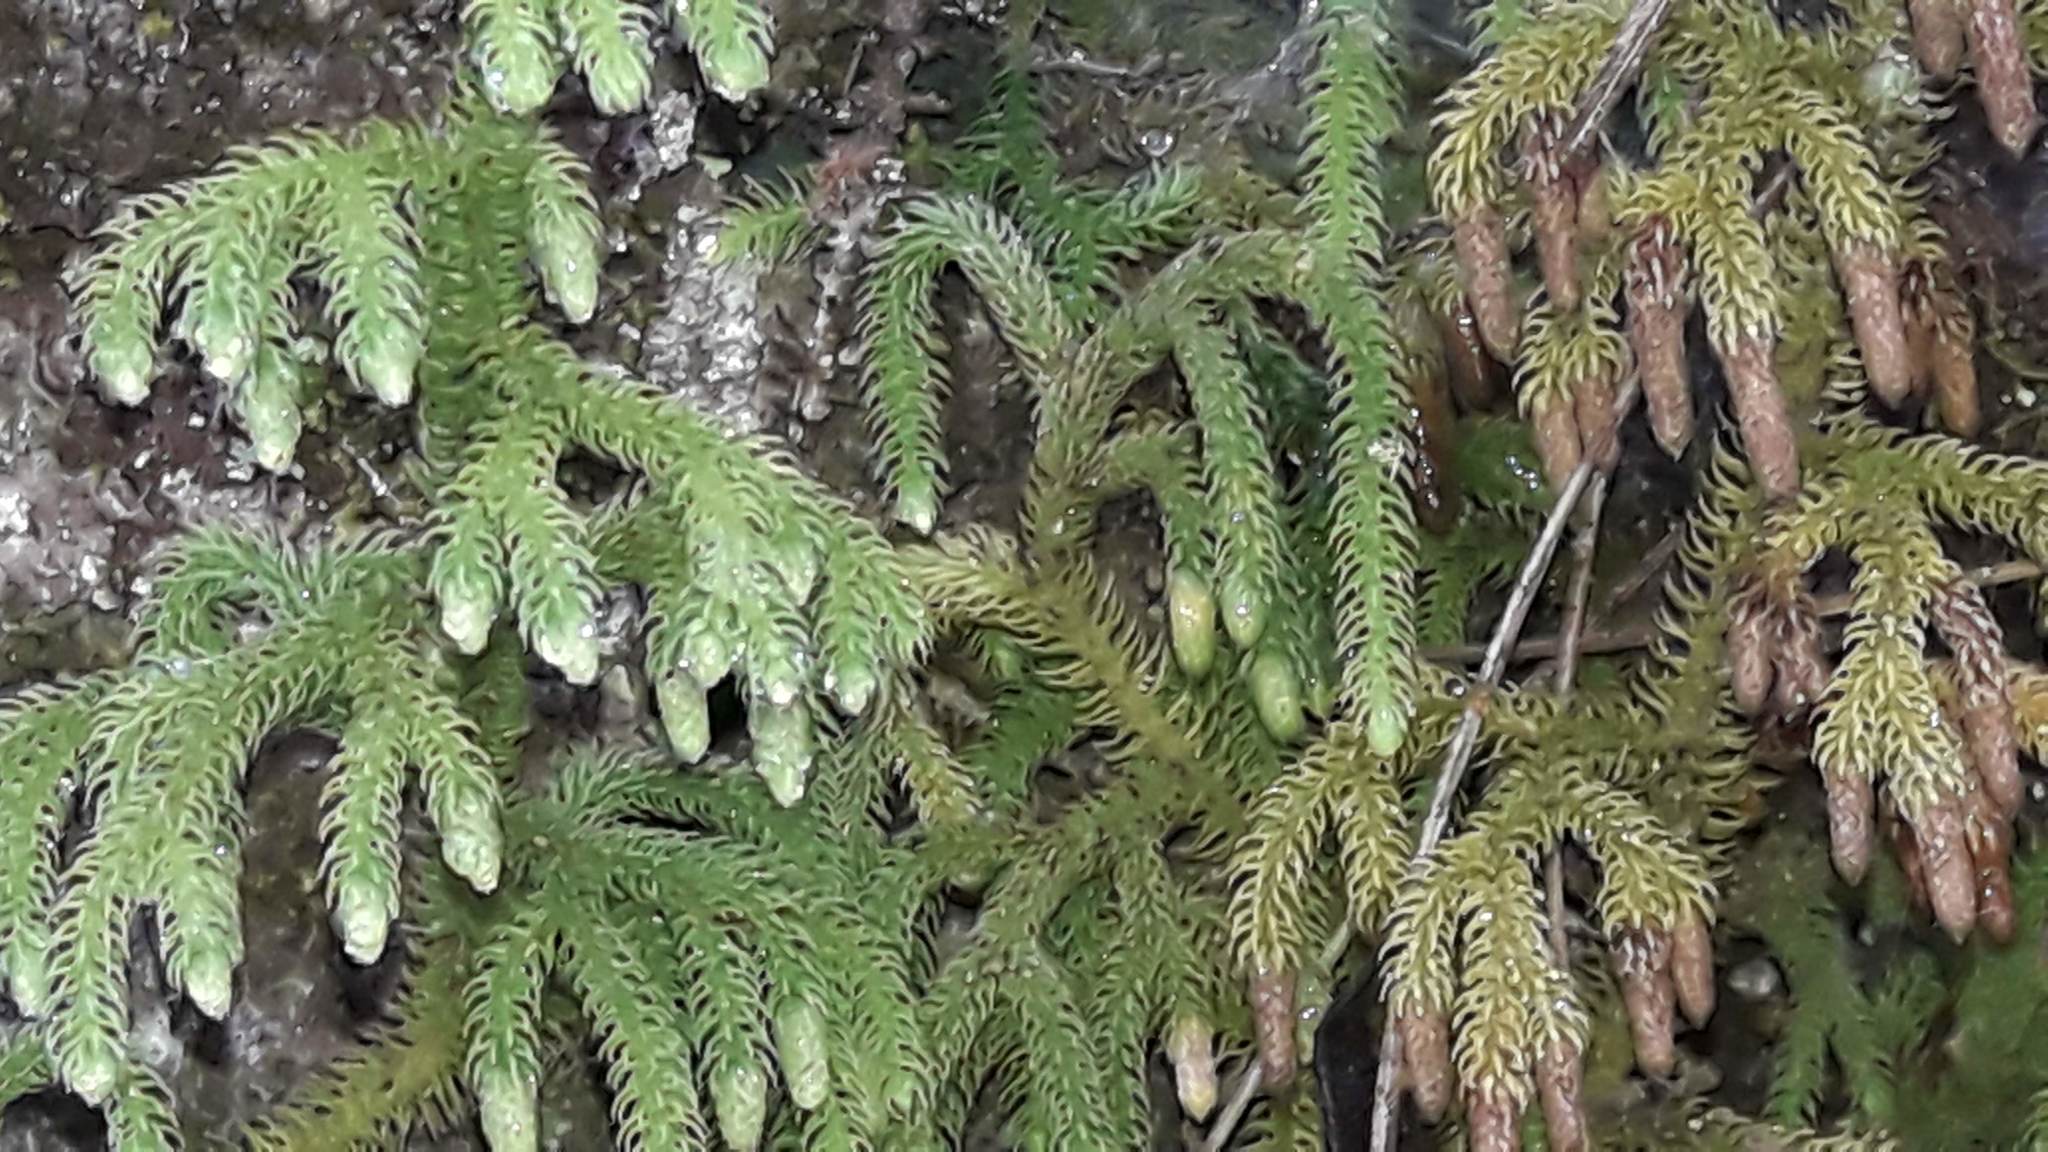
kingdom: Plantae
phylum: Tracheophyta
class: Lycopodiopsida
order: Lycopodiales
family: Lycopodiaceae
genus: Palhinhaea
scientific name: Palhinhaea cernua
